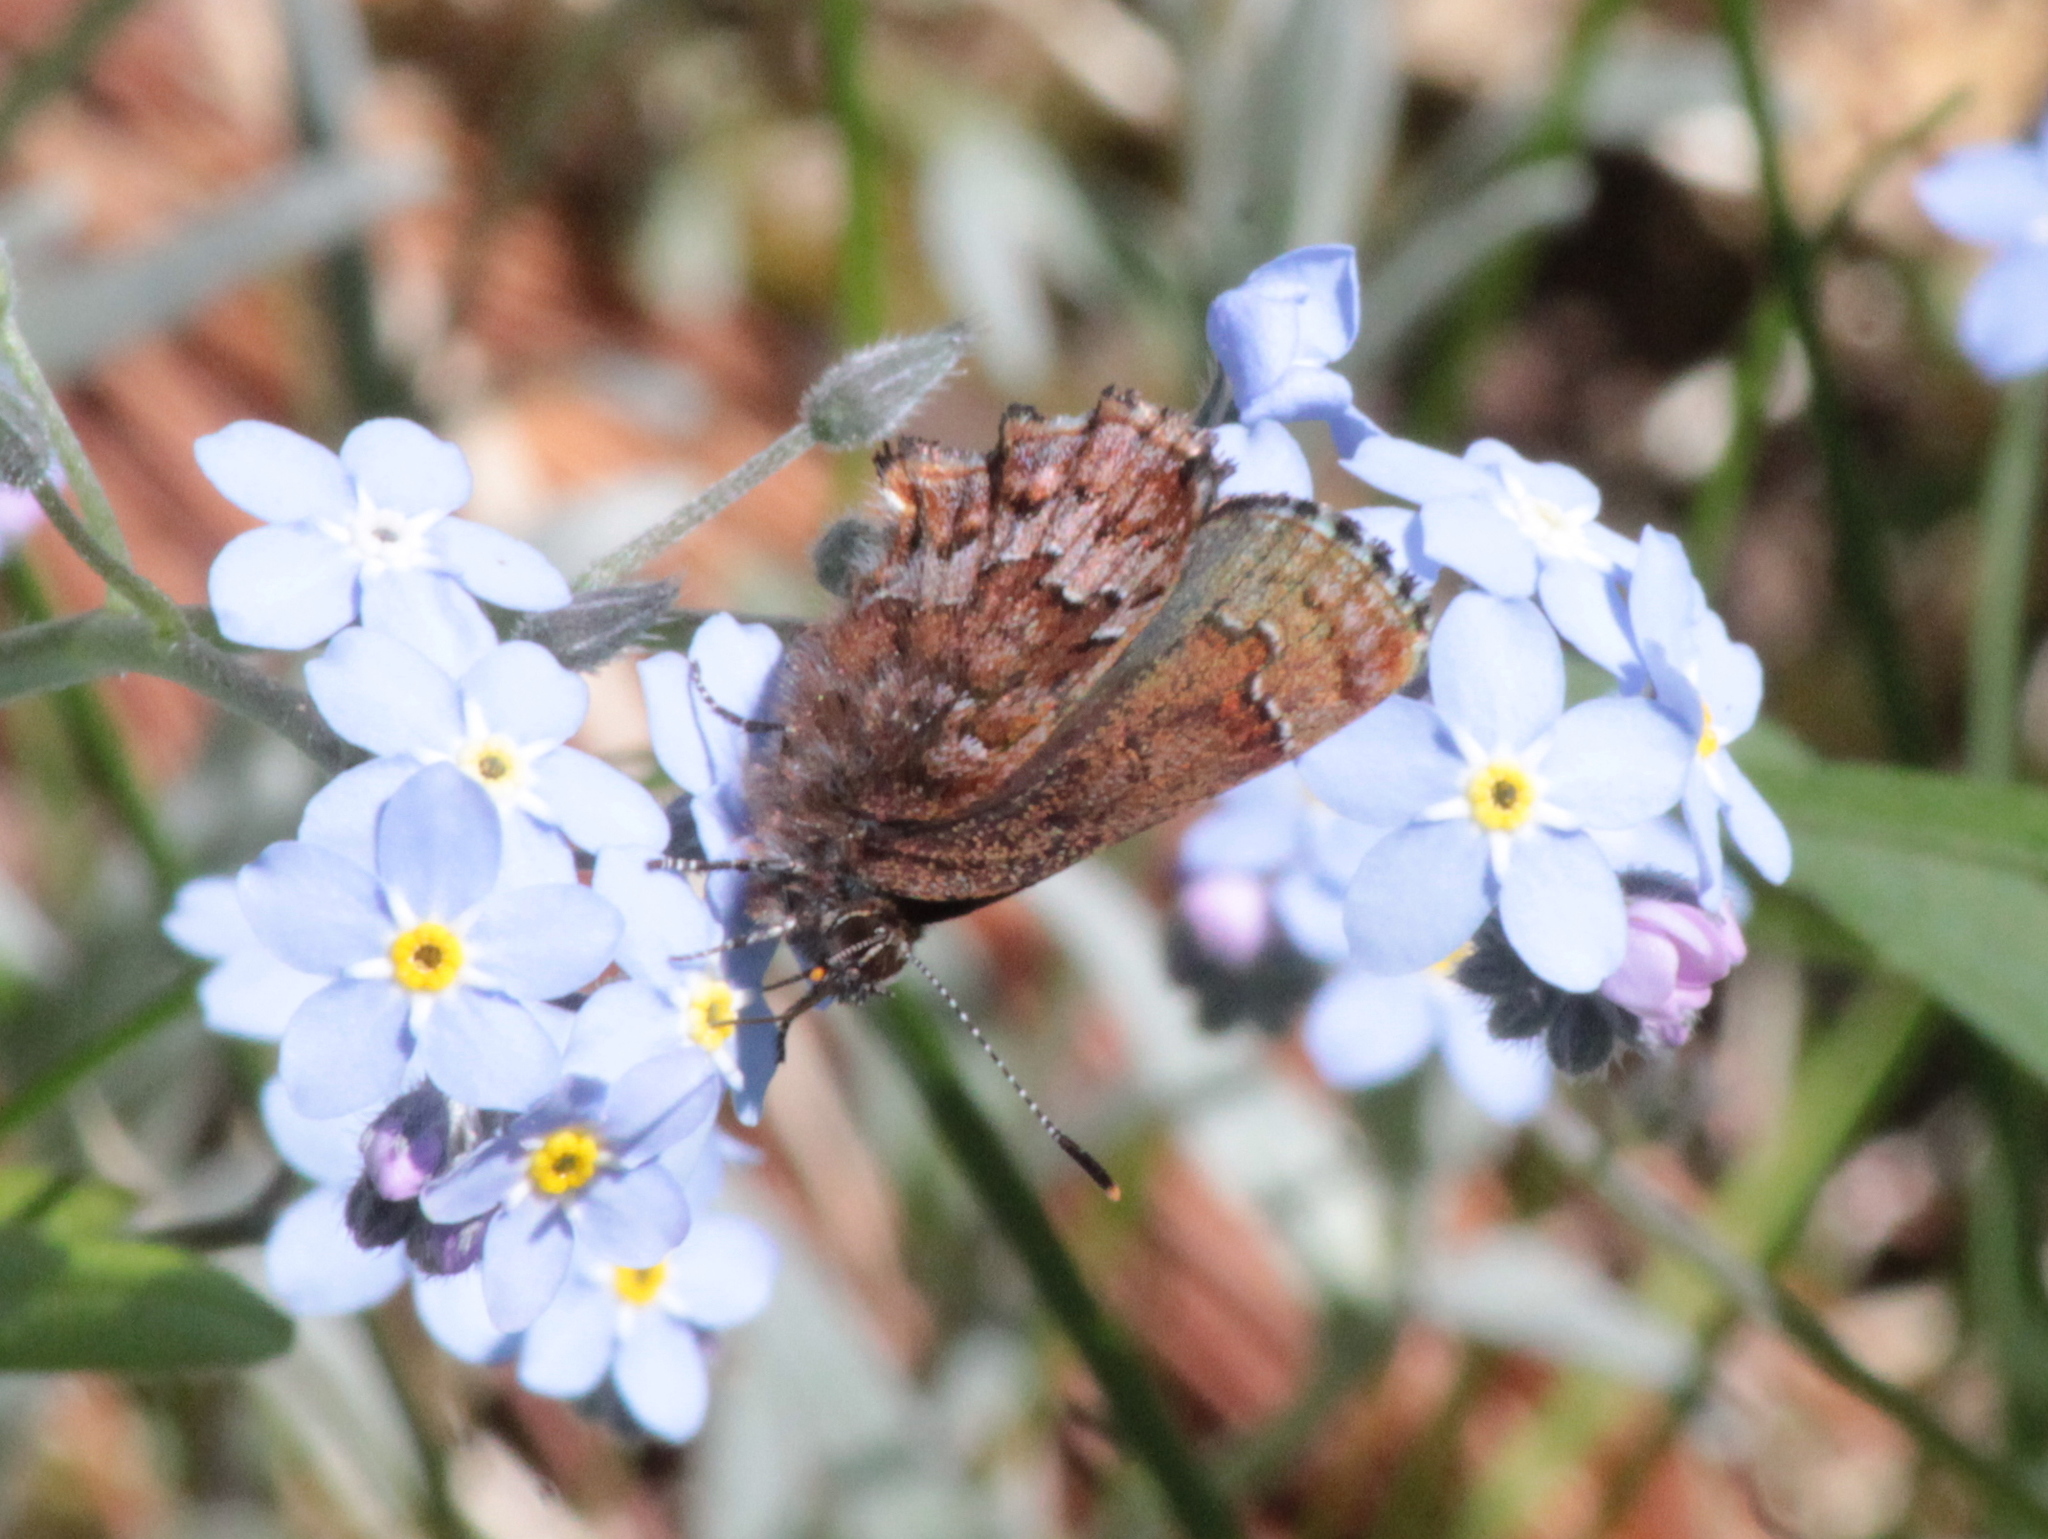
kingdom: Animalia
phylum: Arthropoda
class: Insecta
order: Lepidoptera
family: Lycaenidae
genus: Incisalia
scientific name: Incisalia niphon
